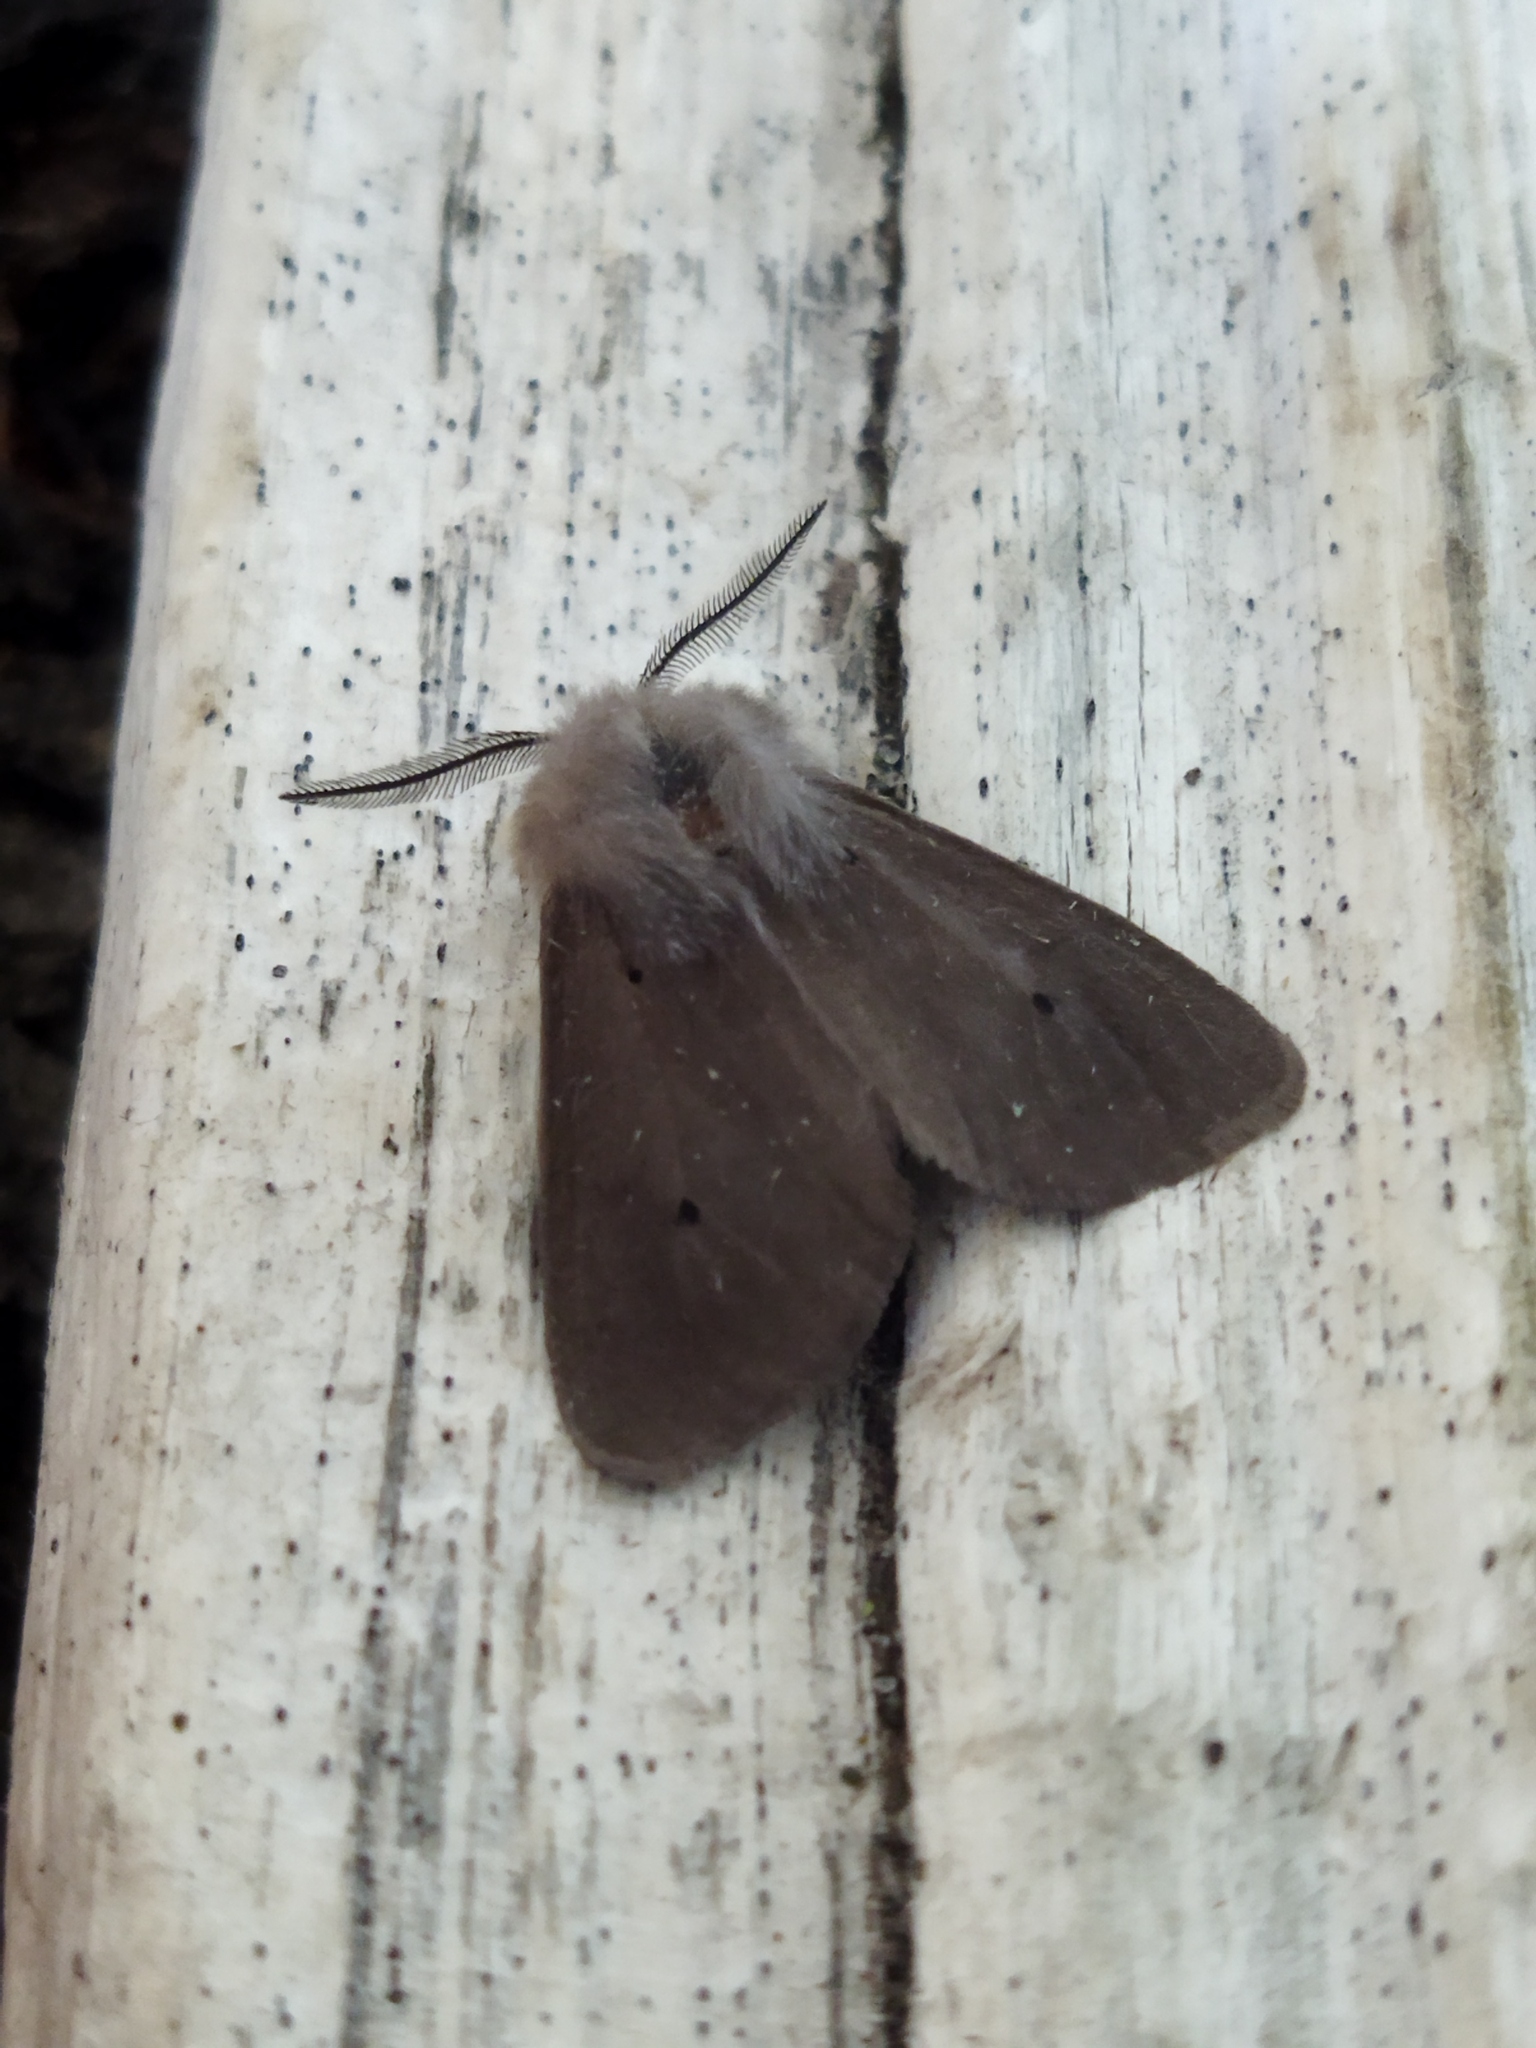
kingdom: Animalia
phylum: Arthropoda
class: Insecta
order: Lepidoptera
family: Erebidae
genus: Diaphora
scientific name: Diaphora mendica
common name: Muslin moth
